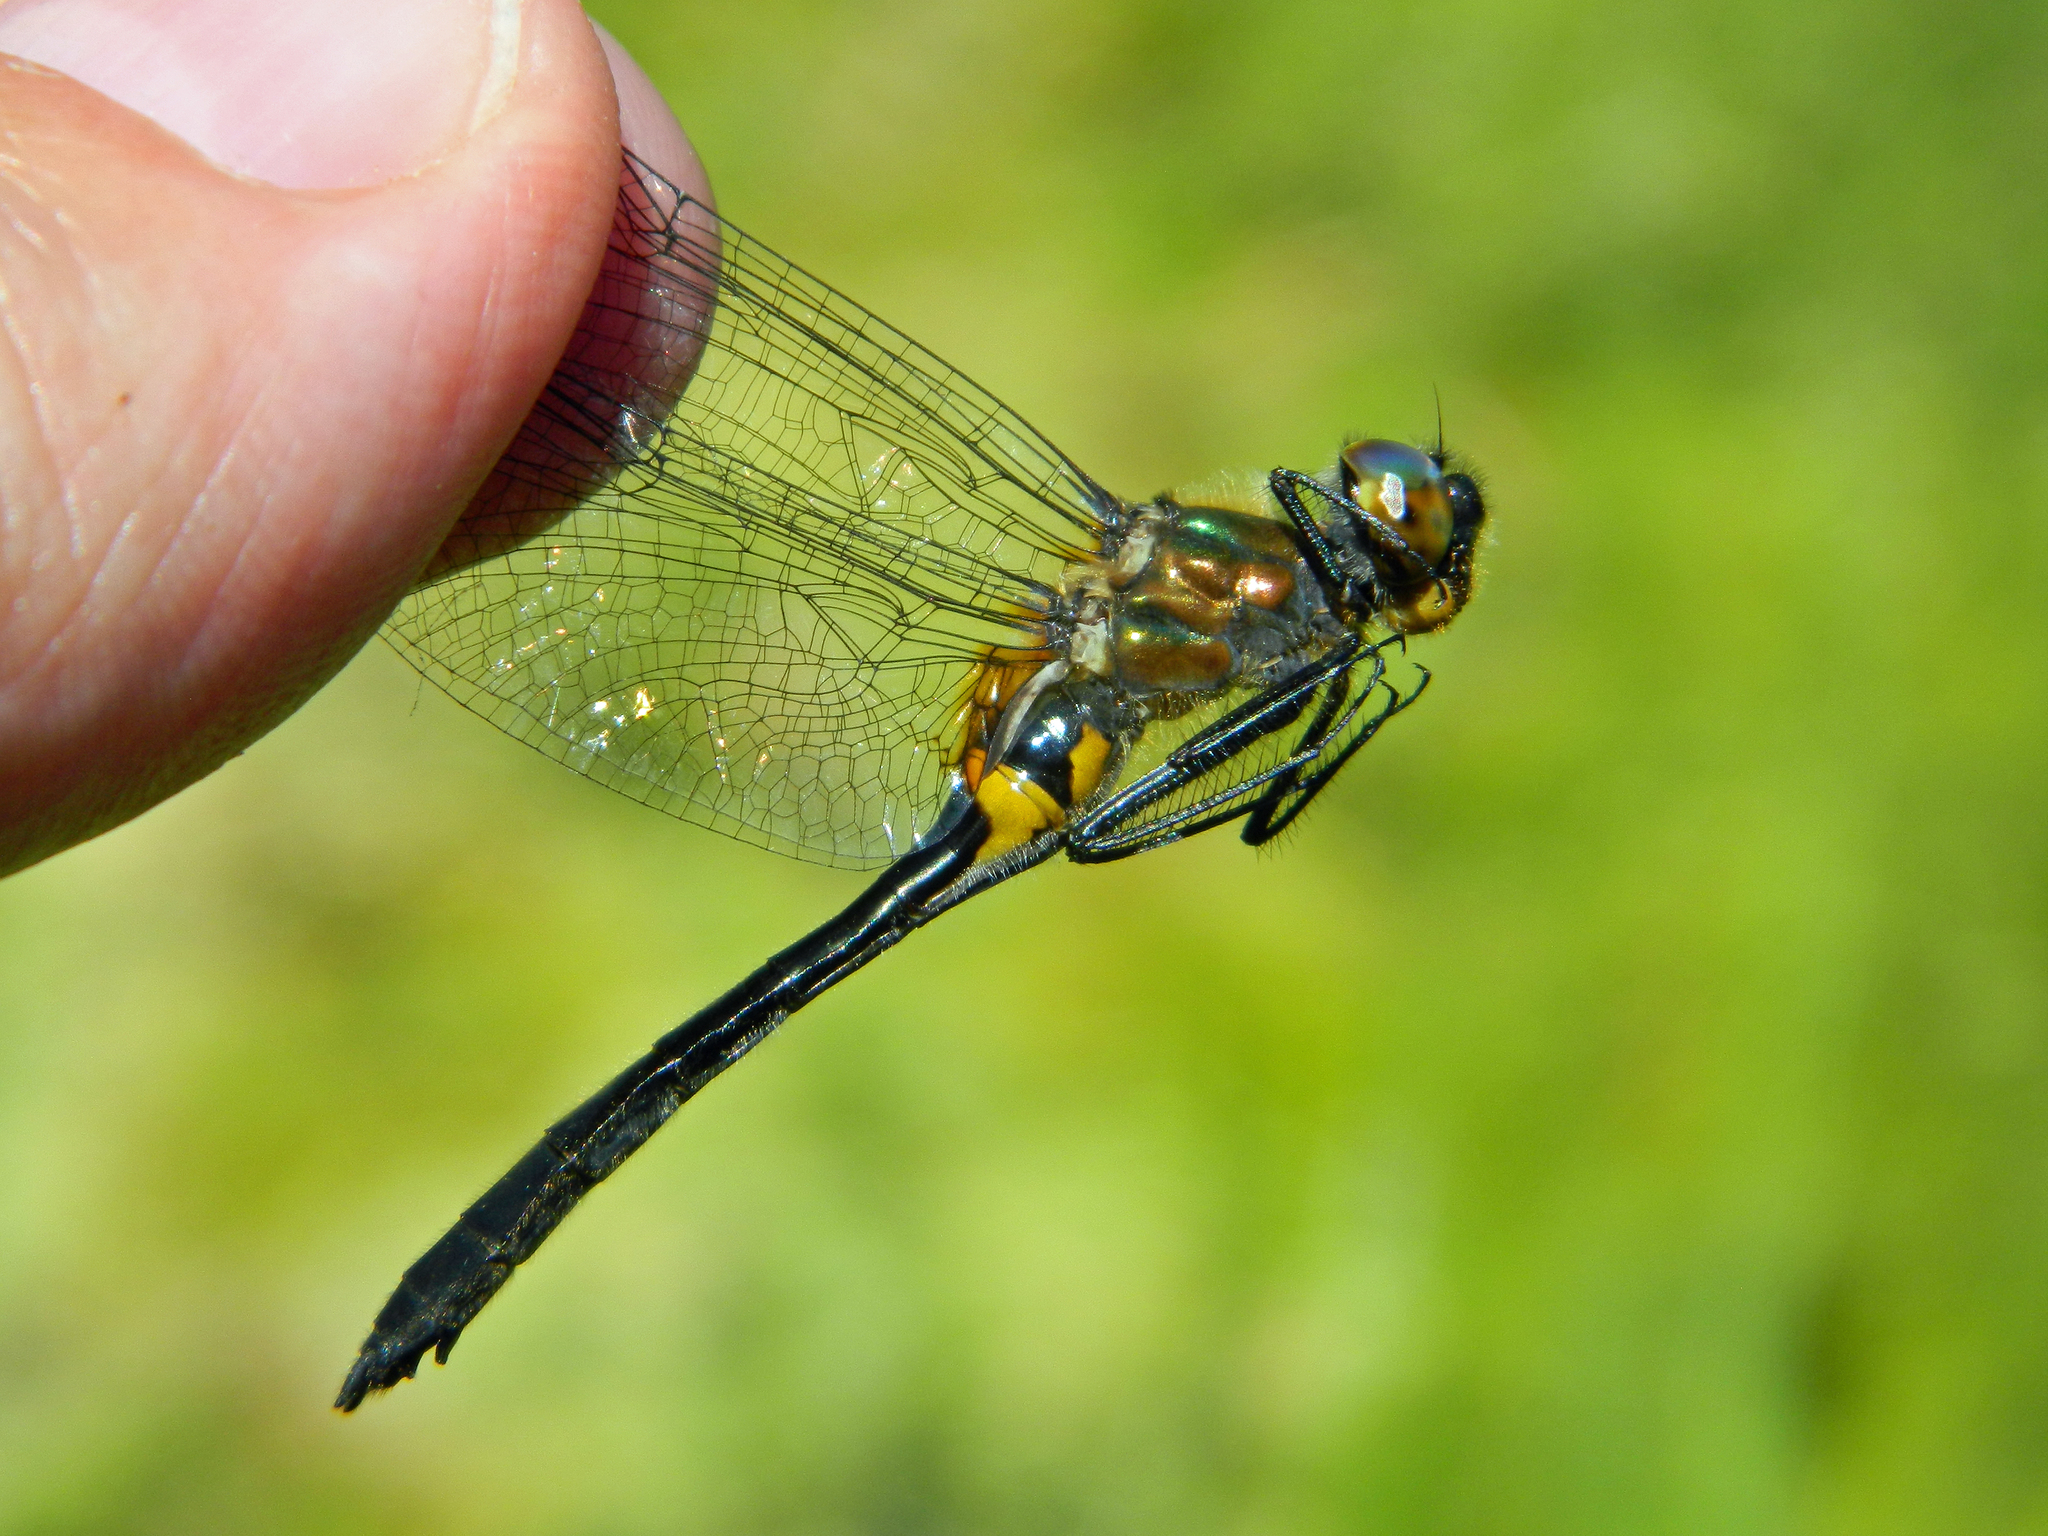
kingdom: Animalia
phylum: Arthropoda
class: Insecta
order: Odonata
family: Corduliidae
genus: Dorocordulia
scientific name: Dorocordulia libera
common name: Racket-tailed emerald
